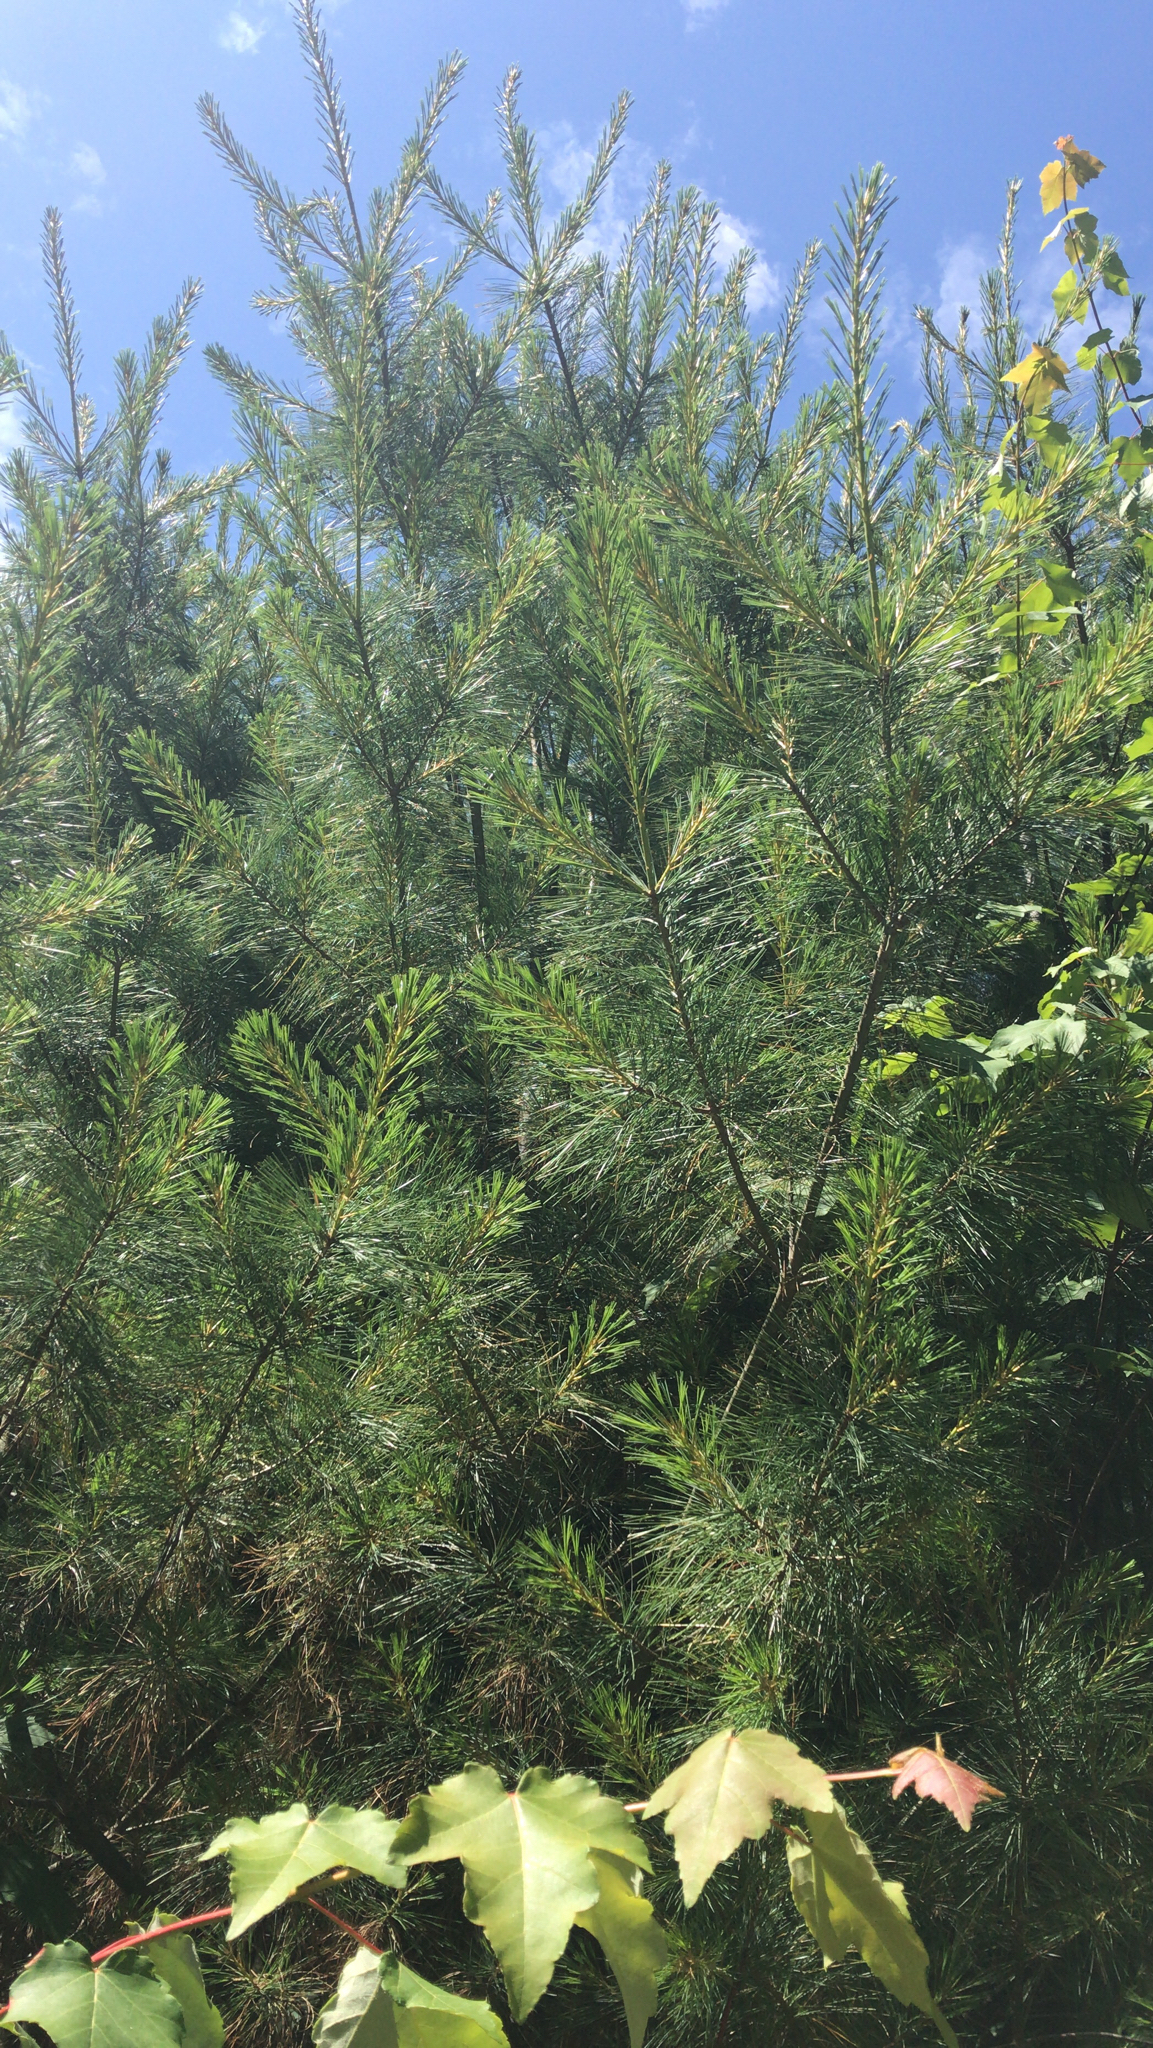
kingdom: Plantae
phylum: Tracheophyta
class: Pinopsida
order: Pinales
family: Pinaceae
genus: Pinus
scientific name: Pinus strobus
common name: Weymouth pine
